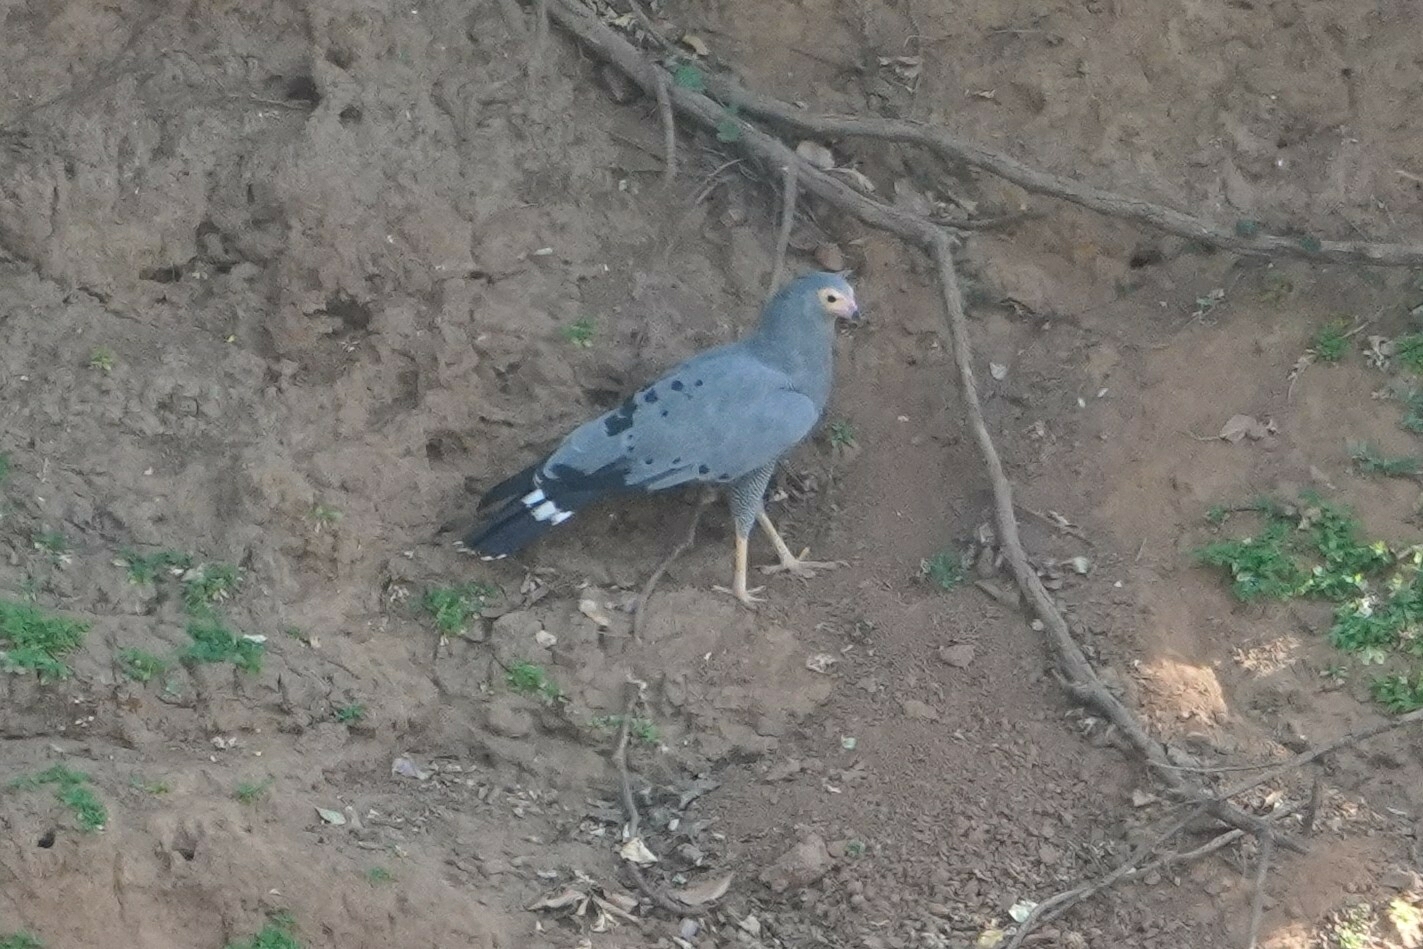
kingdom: Animalia
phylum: Chordata
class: Aves
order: Accipitriformes
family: Accipitridae
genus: Polyboroides
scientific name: Polyboroides typus
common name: African harrier-hawk
